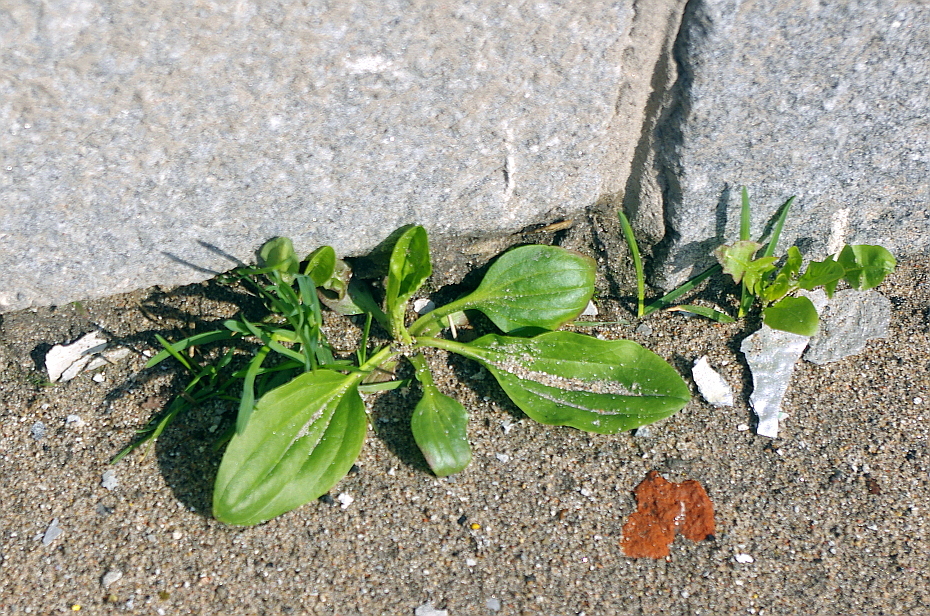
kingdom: Plantae
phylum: Tracheophyta
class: Magnoliopsida
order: Lamiales
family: Plantaginaceae
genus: Plantago
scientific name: Plantago major
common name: Common plantain
